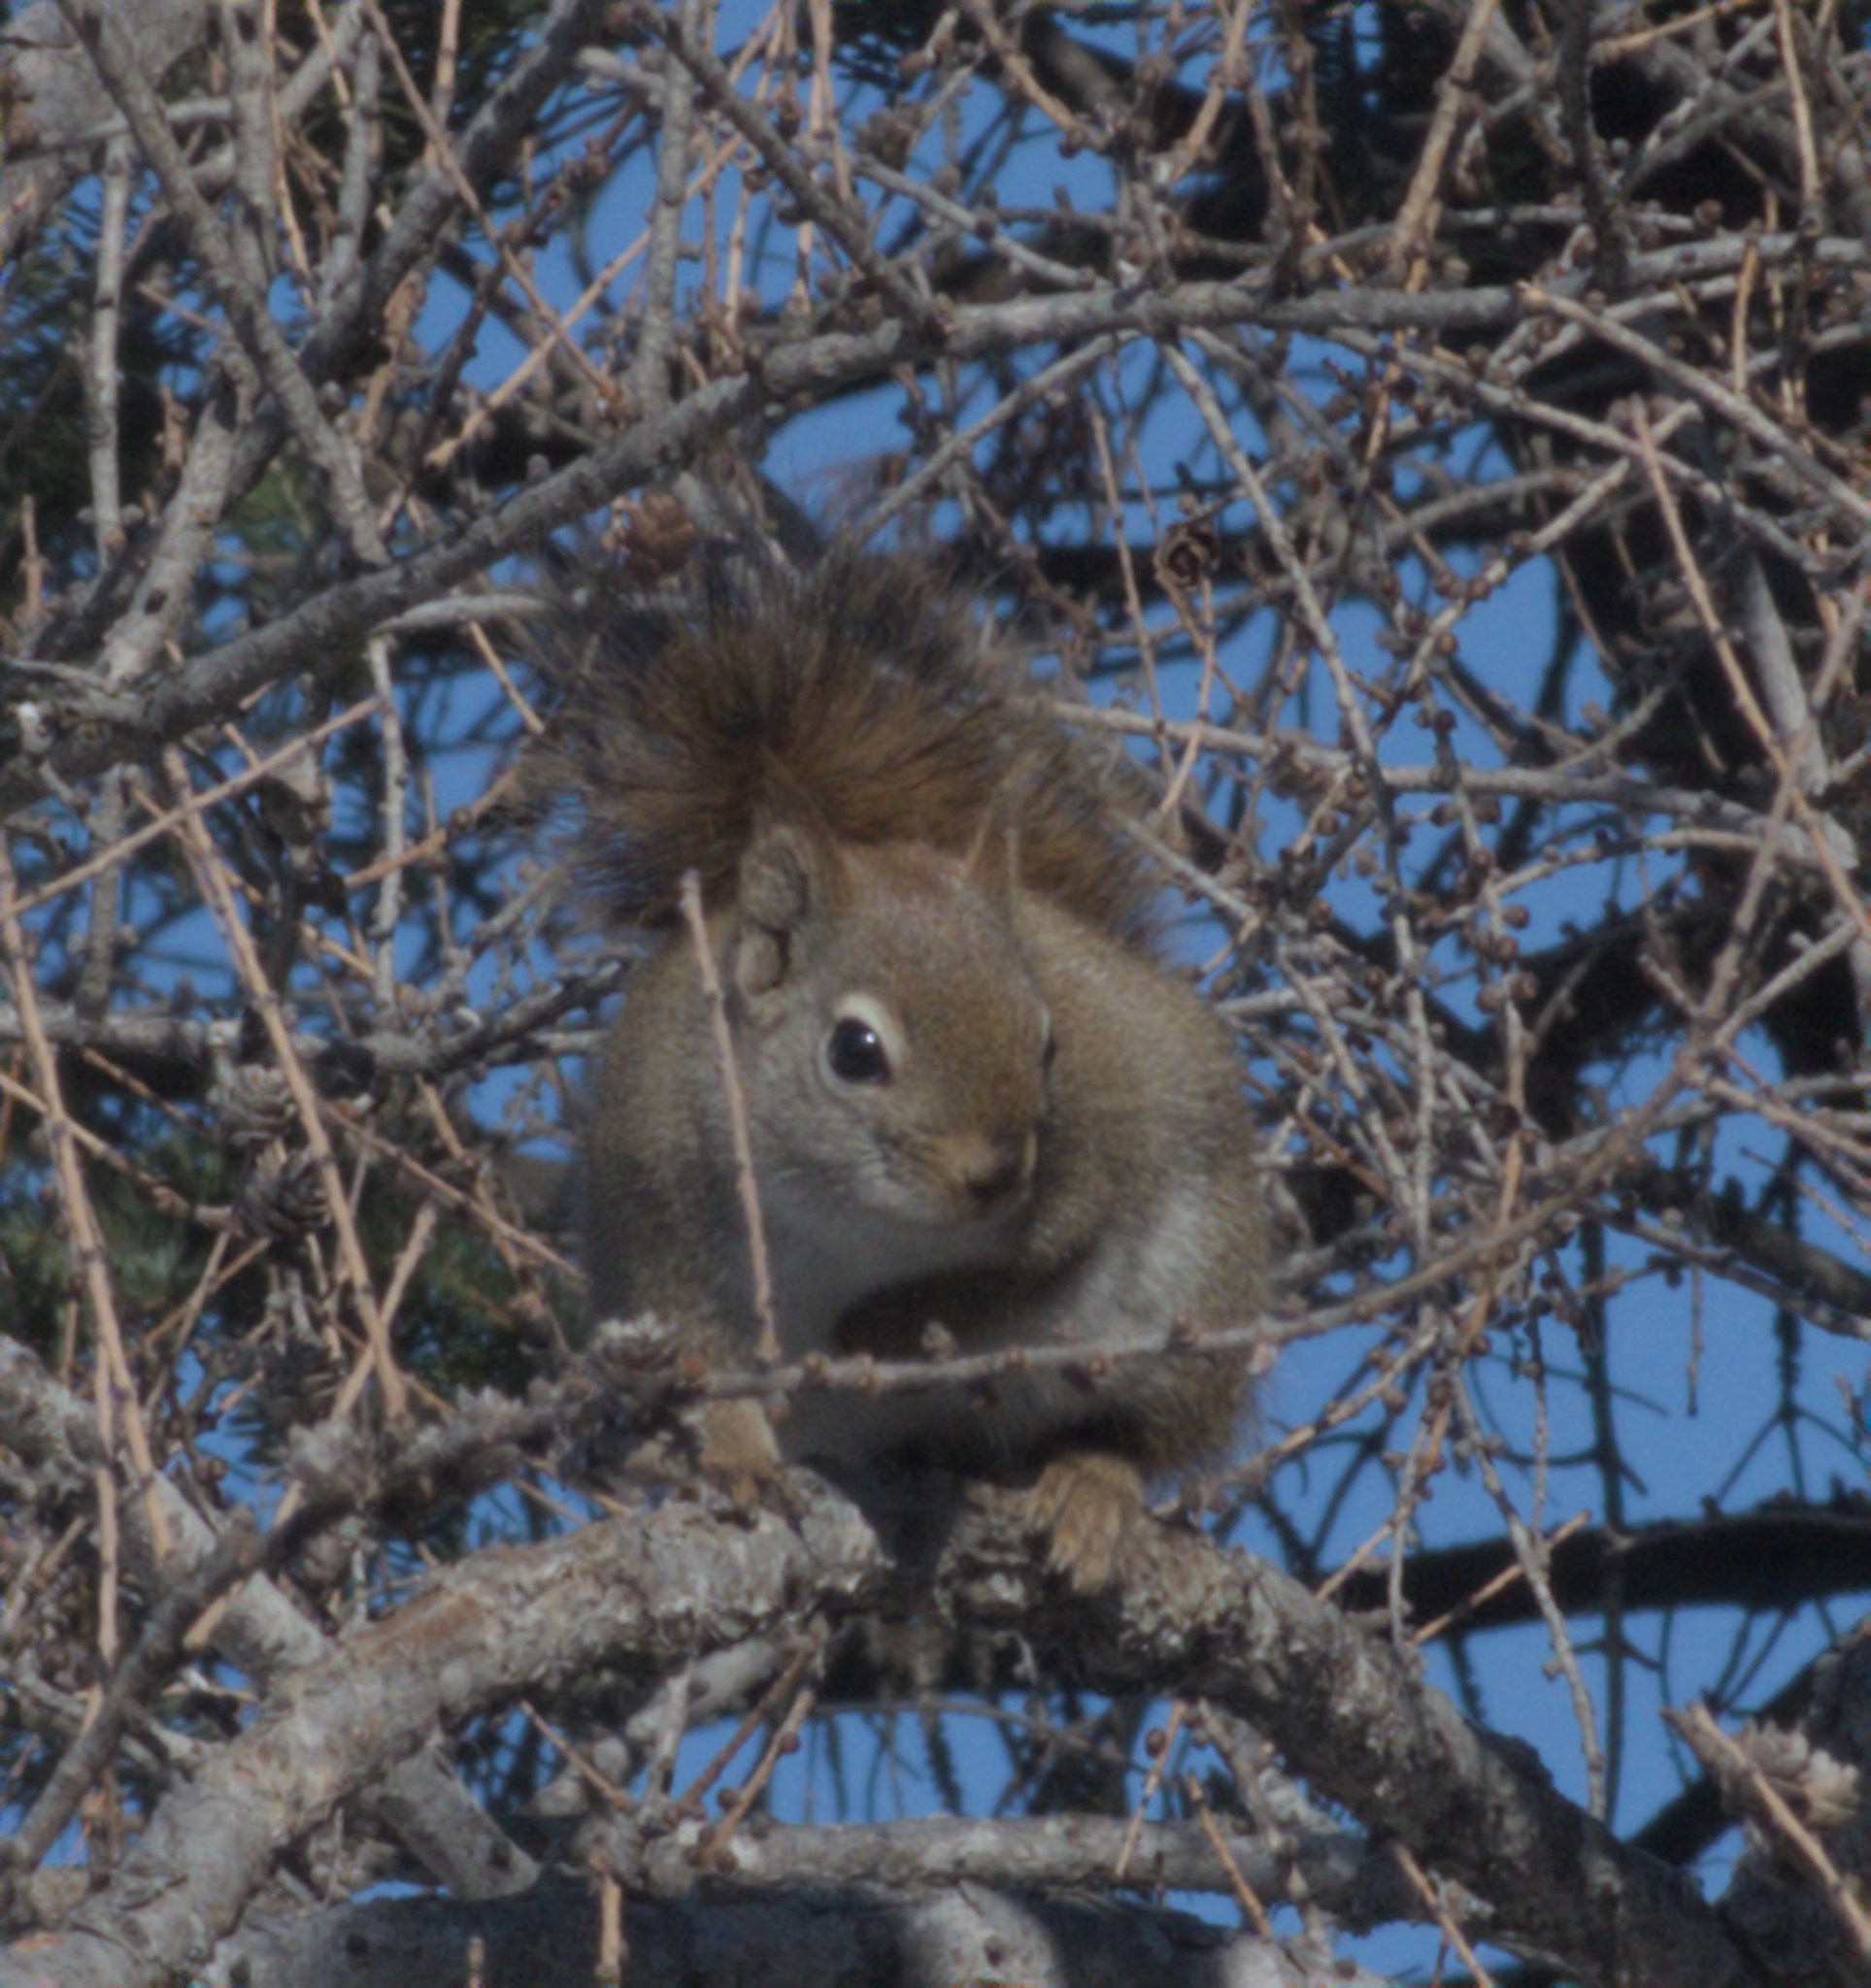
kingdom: Animalia
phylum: Chordata
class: Mammalia
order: Rodentia
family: Sciuridae
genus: Tamiasciurus
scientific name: Tamiasciurus hudsonicus
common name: Red squirrel
